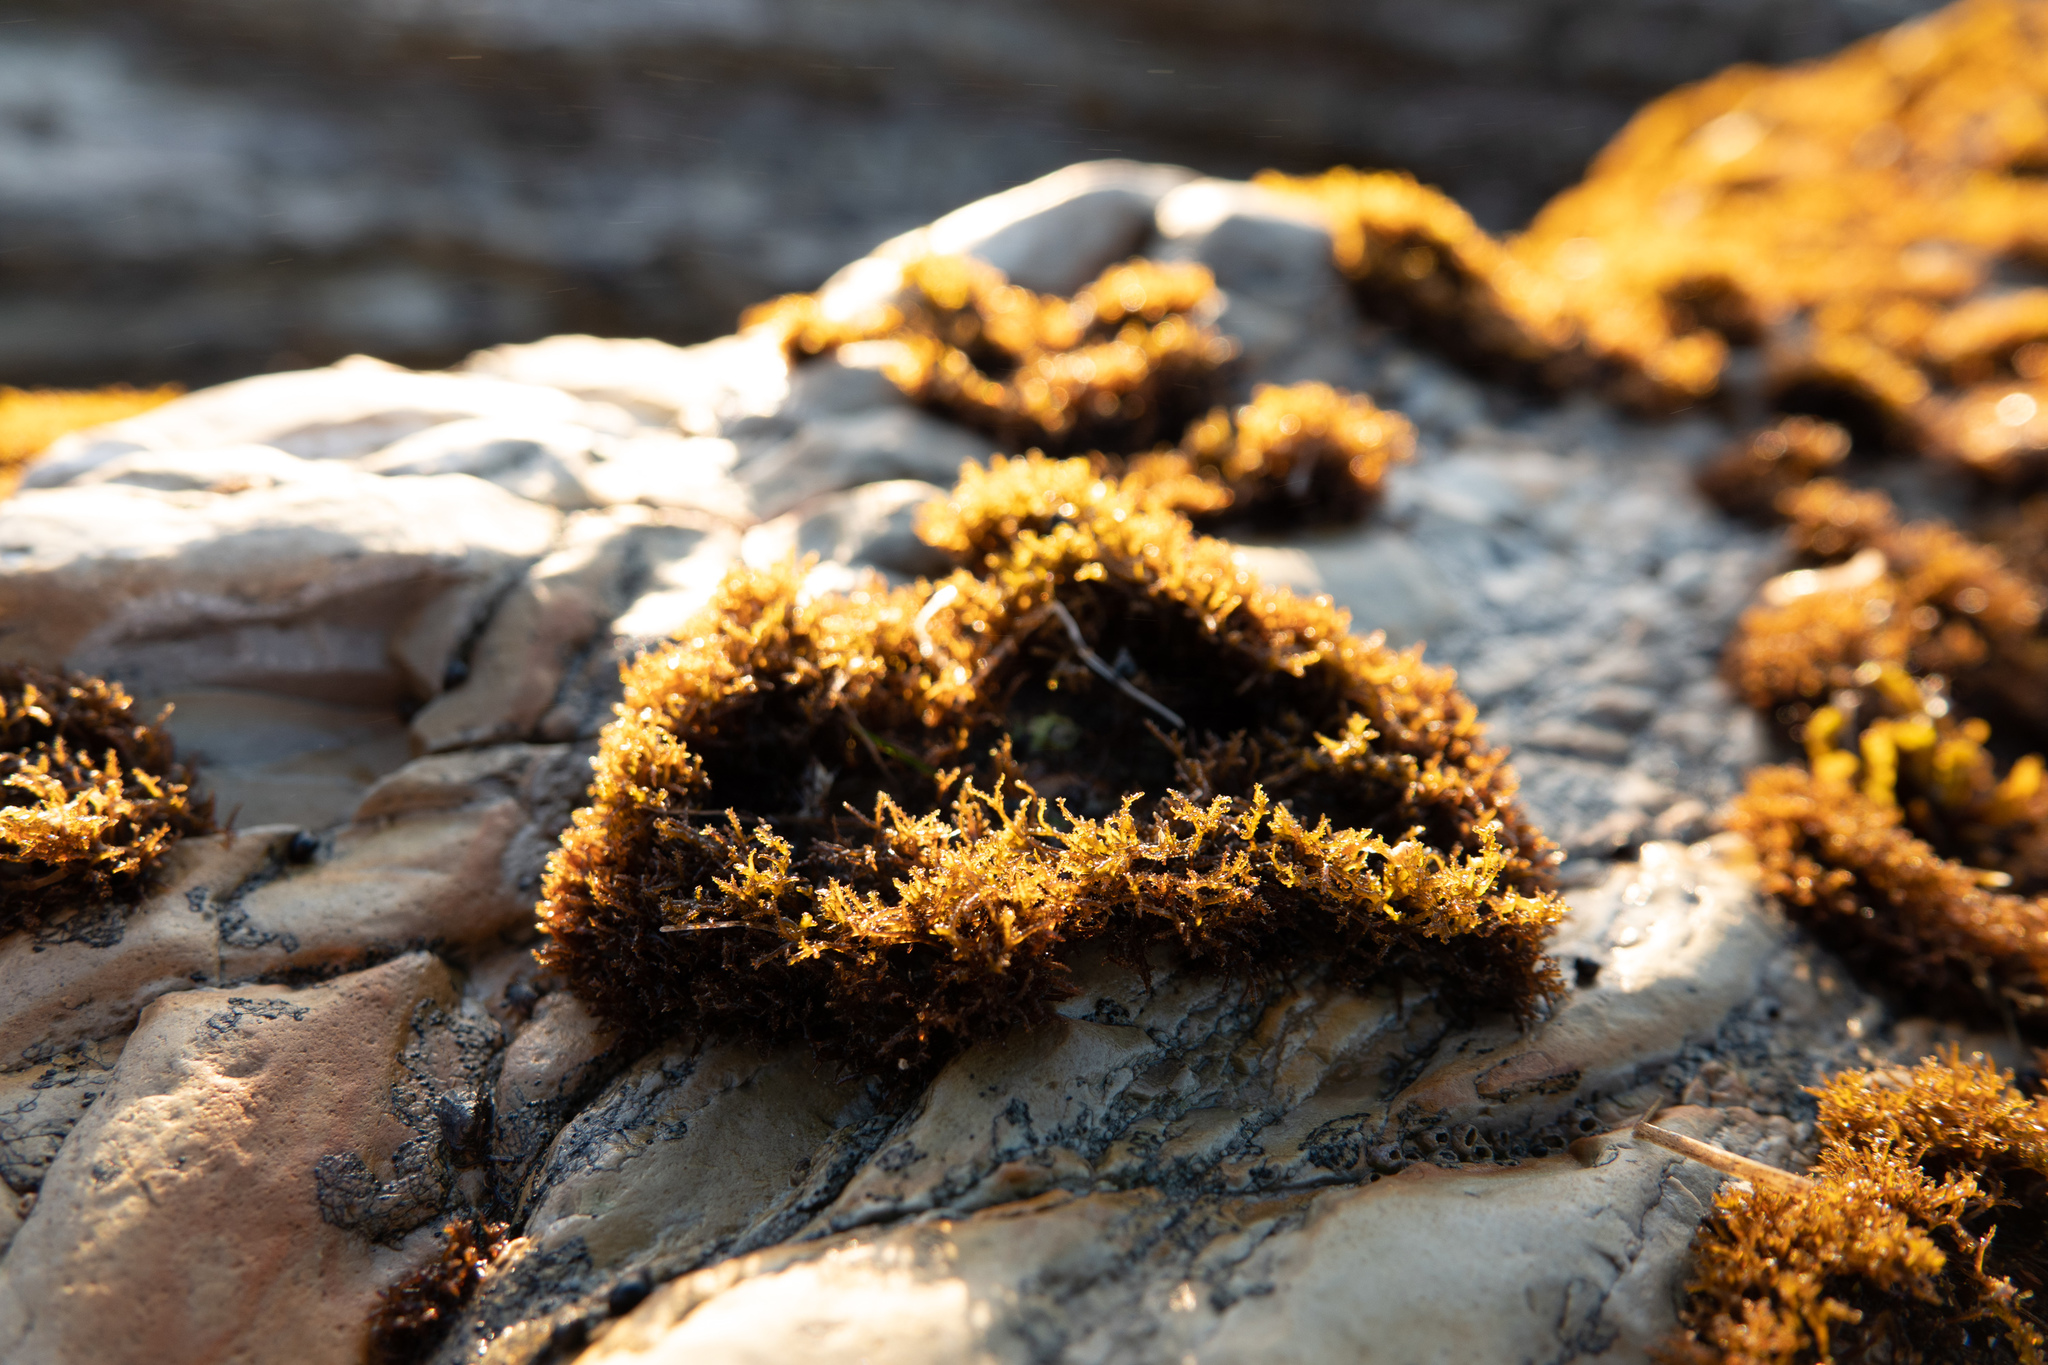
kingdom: Plantae
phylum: Rhodophyta
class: Florideophyceae
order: Gigartinales
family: Endocladiaceae
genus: Endocladia
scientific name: Endocladia muricata
